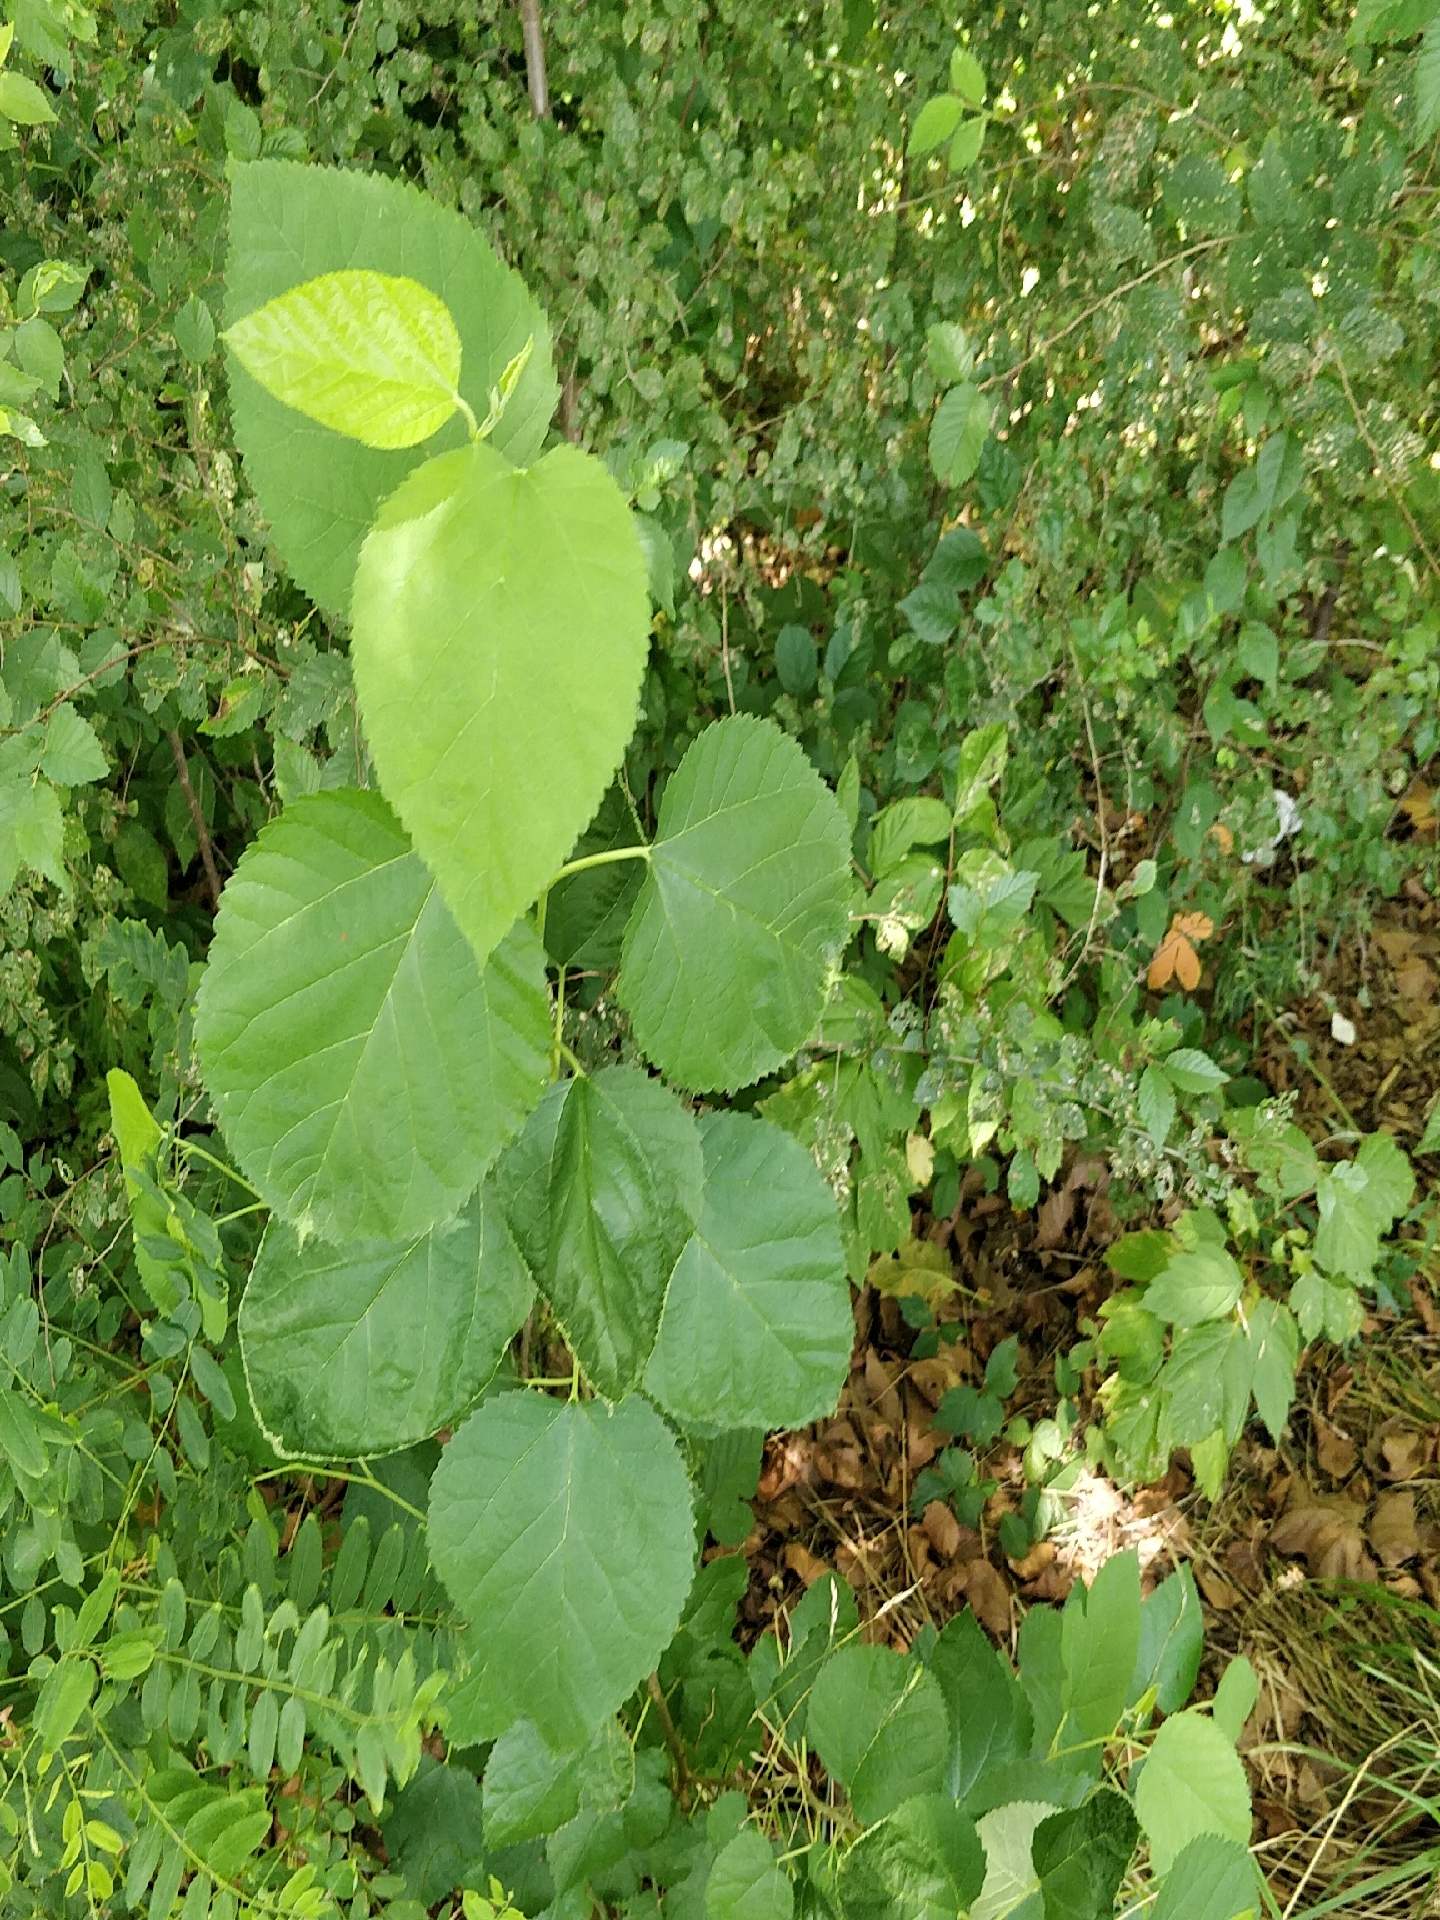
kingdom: Plantae
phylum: Tracheophyta
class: Magnoliopsida
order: Rosales
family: Moraceae
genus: Morus
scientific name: Morus alba
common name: White mulberry
